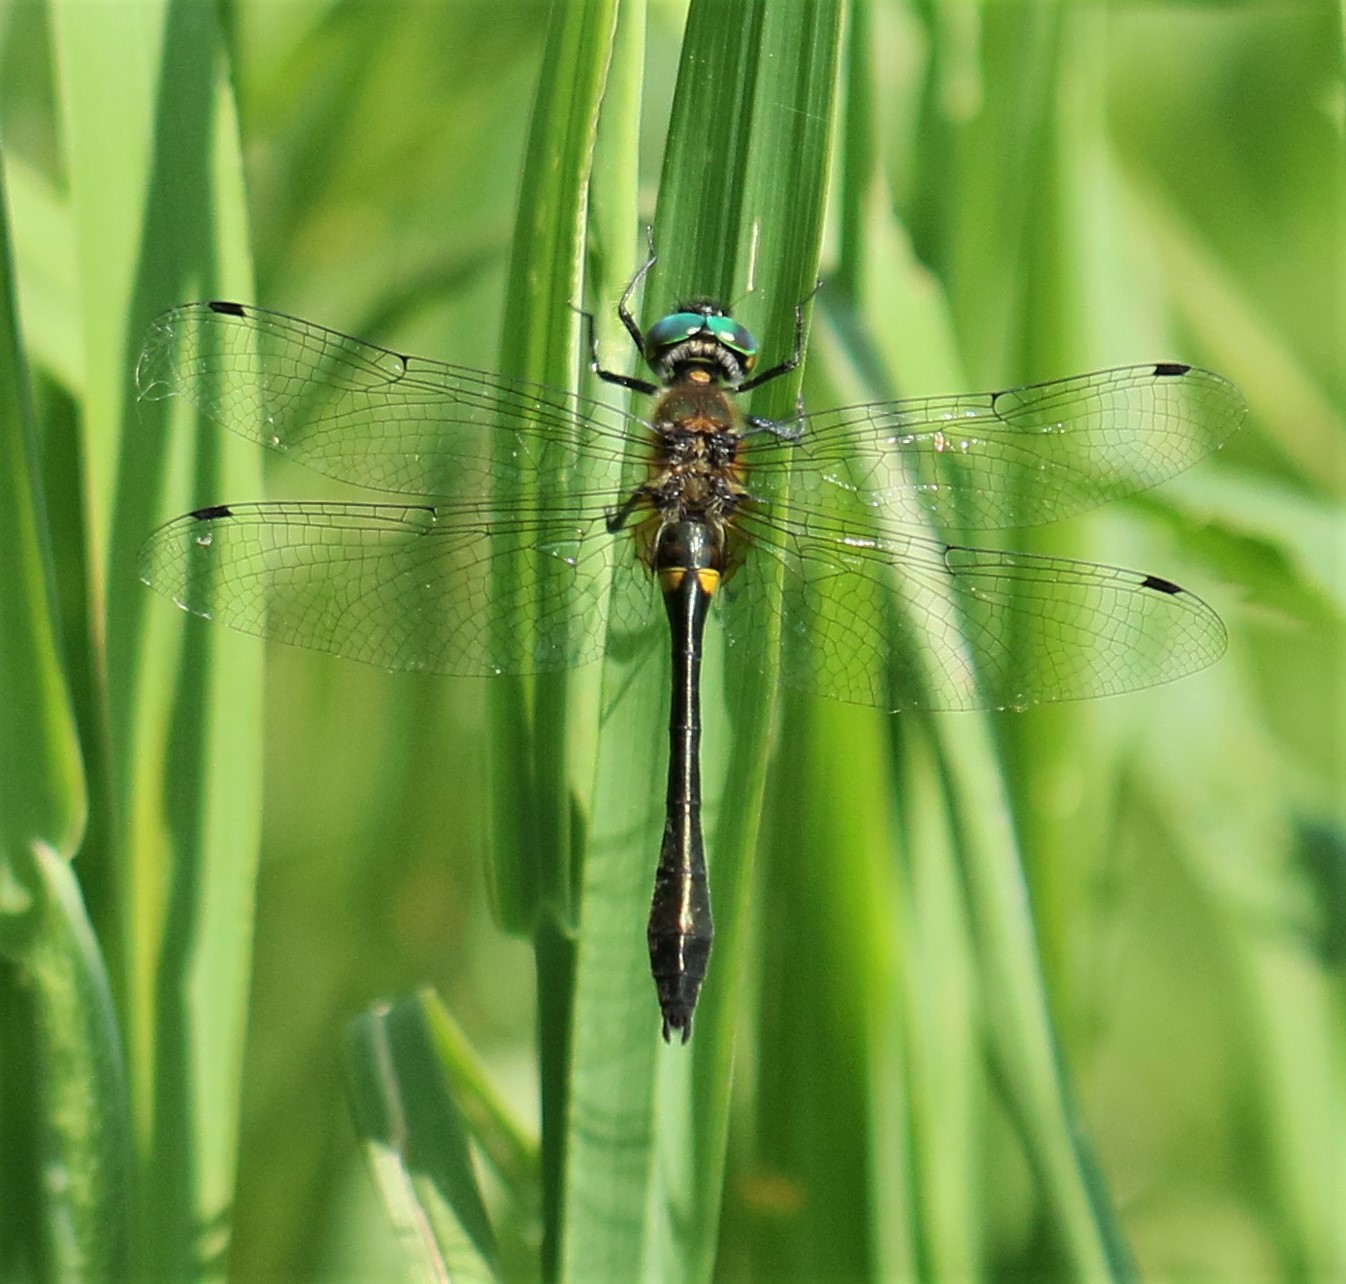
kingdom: Animalia
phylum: Arthropoda
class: Insecta
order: Odonata
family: Corduliidae
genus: Dorocordulia
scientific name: Dorocordulia libera
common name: Racket-tailed emerald
